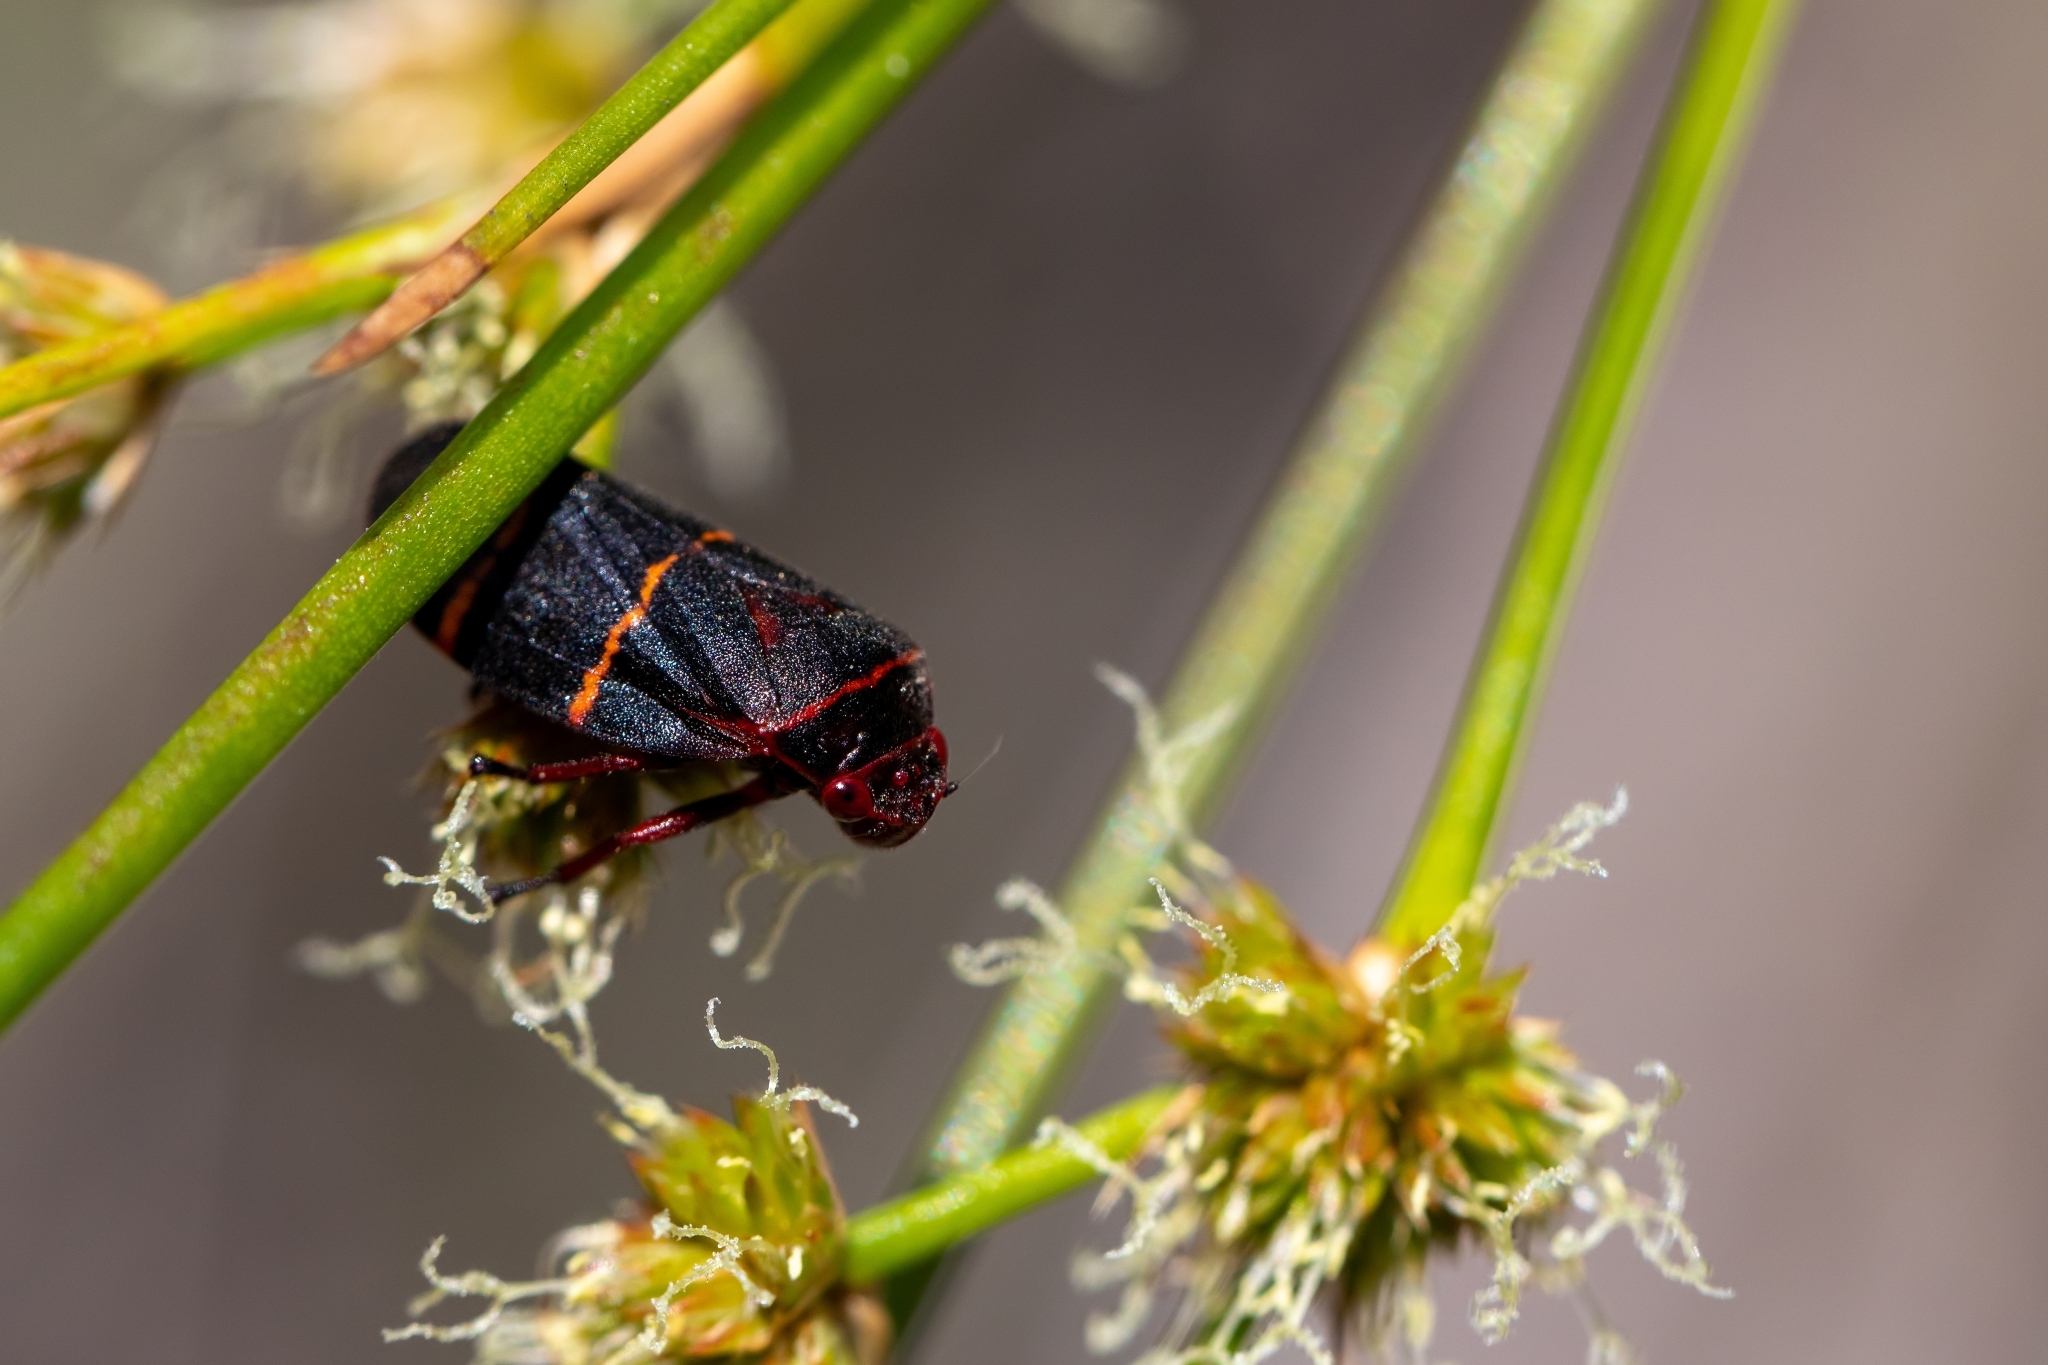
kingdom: Animalia
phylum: Arthropoda
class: Insecta
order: Hemiptera
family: Cercopidae
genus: Prosapia
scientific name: Prosapia bicincta
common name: Twolined spittlebug
